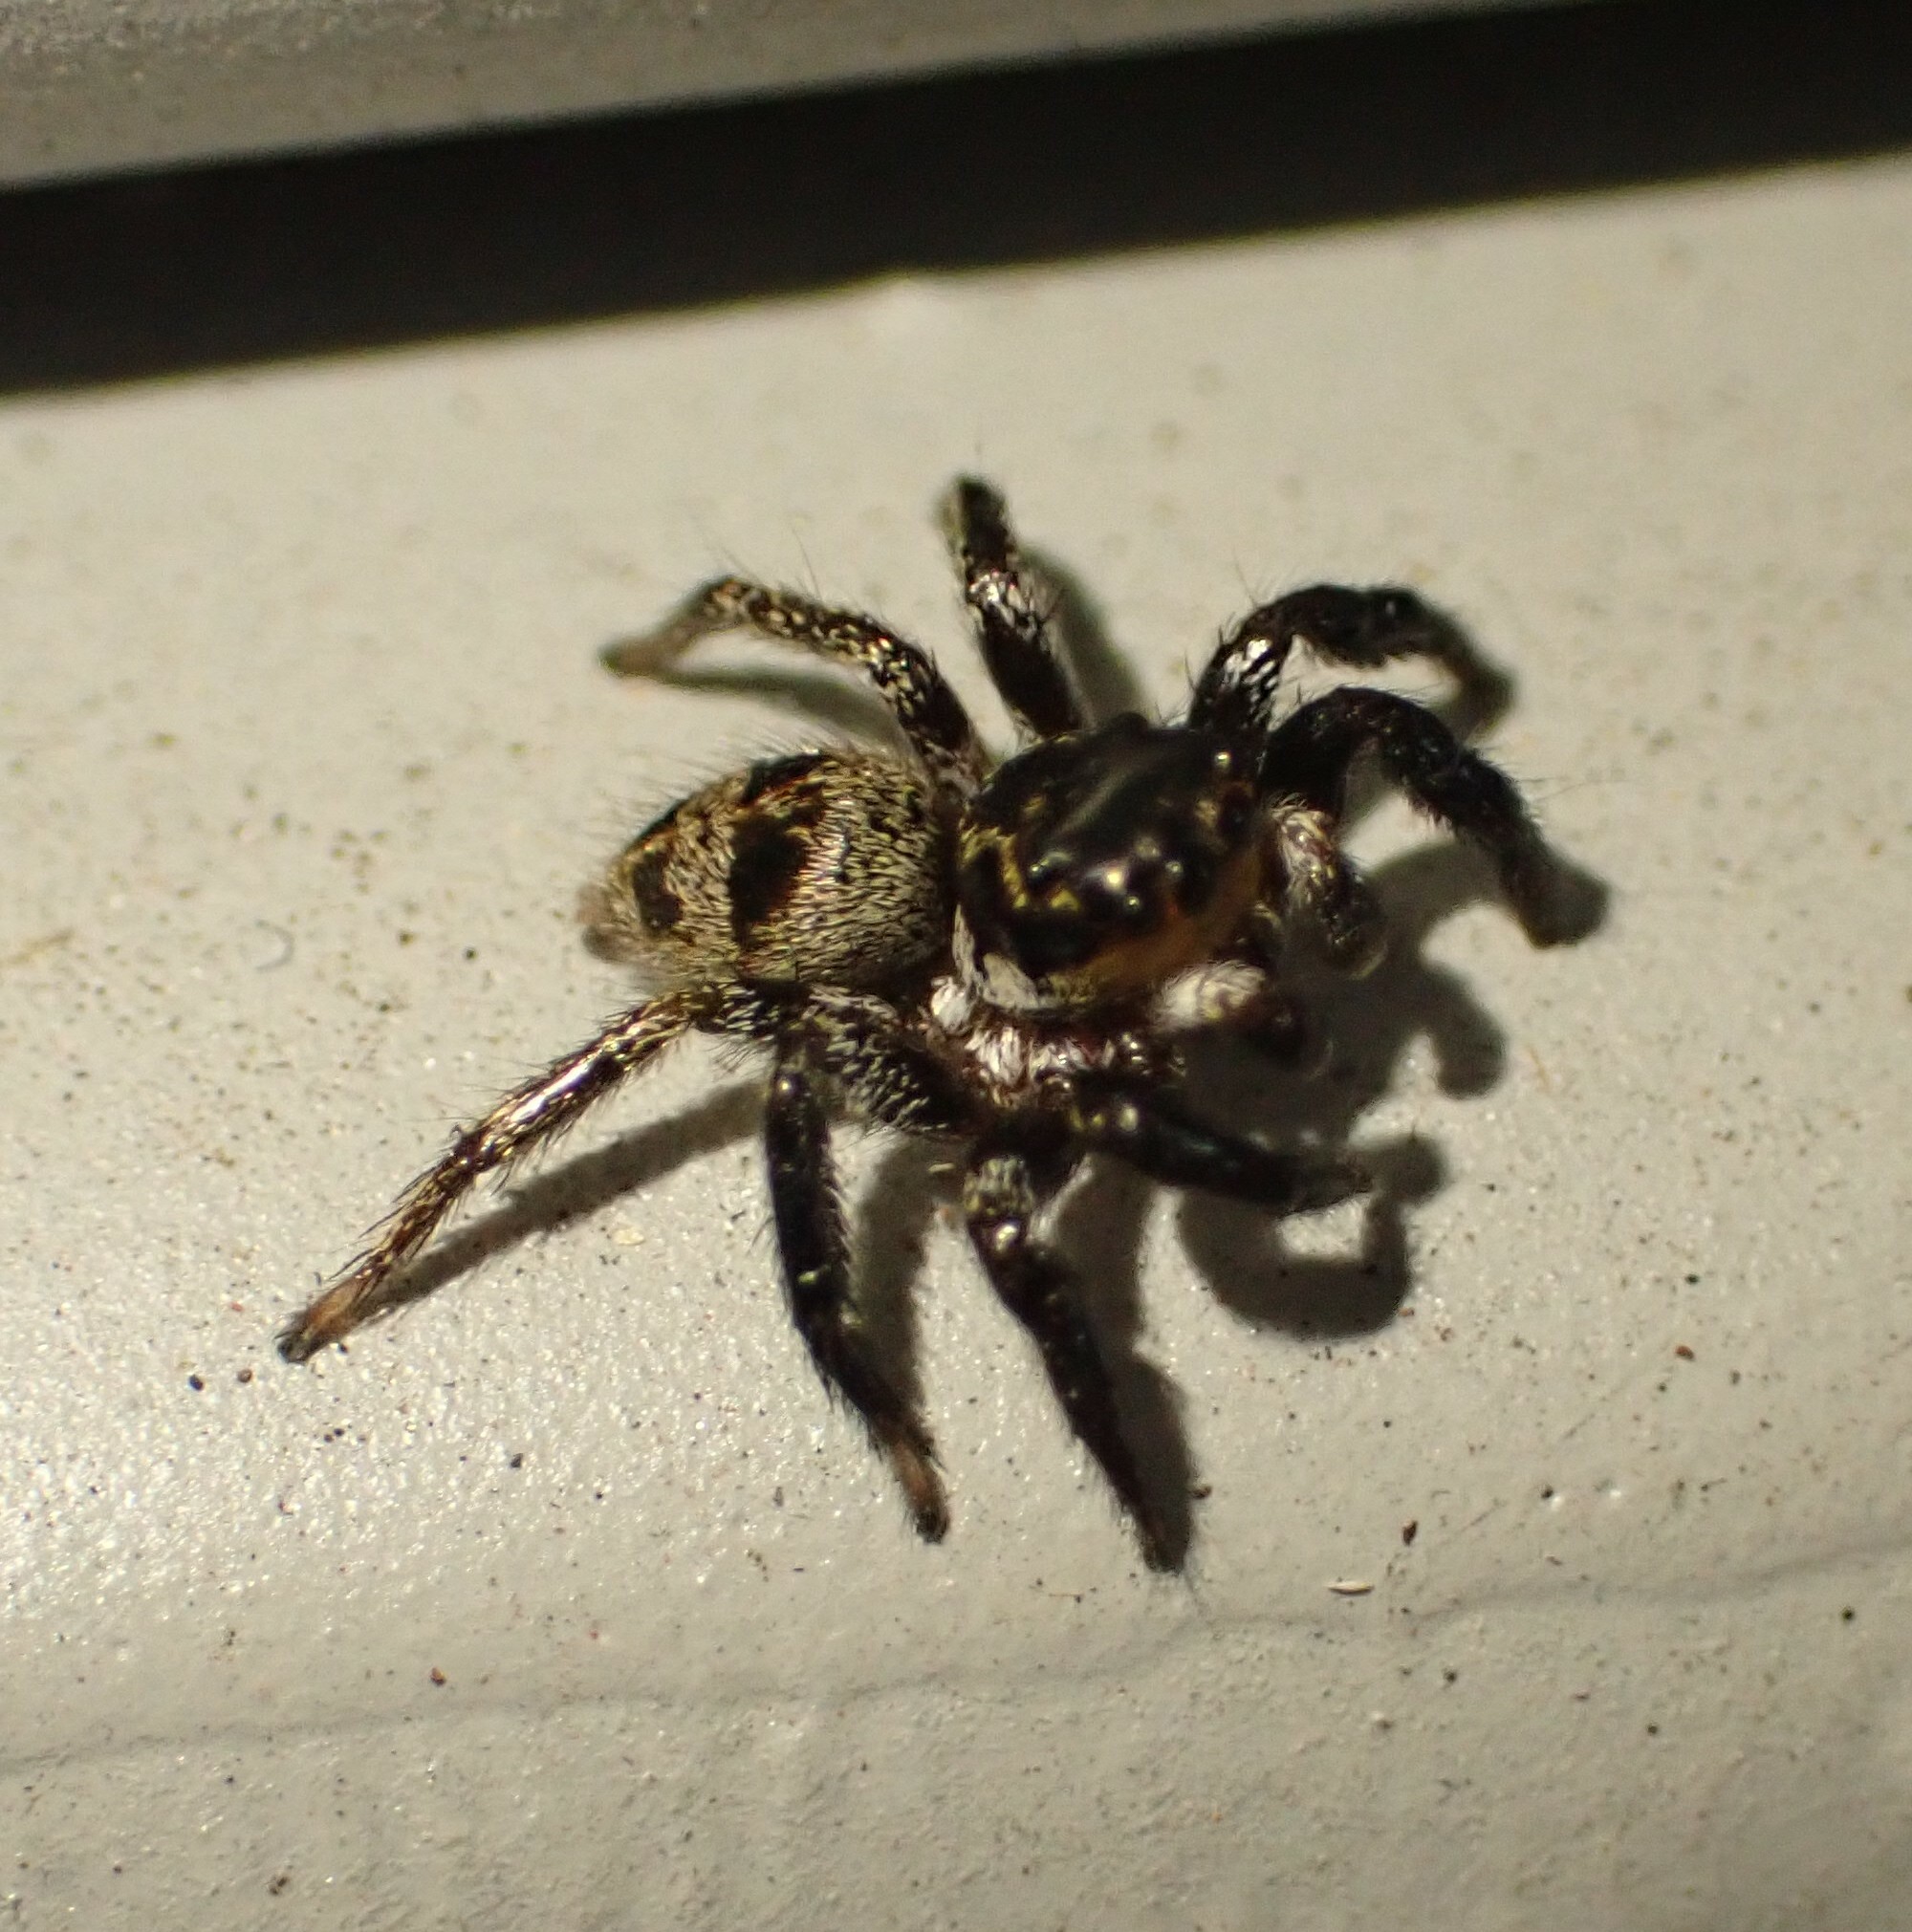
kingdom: Animalia
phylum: Arthropoda
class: Arachnida
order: Araneae
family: Salticidae
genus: Corythalia
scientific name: Corythalia conferta
